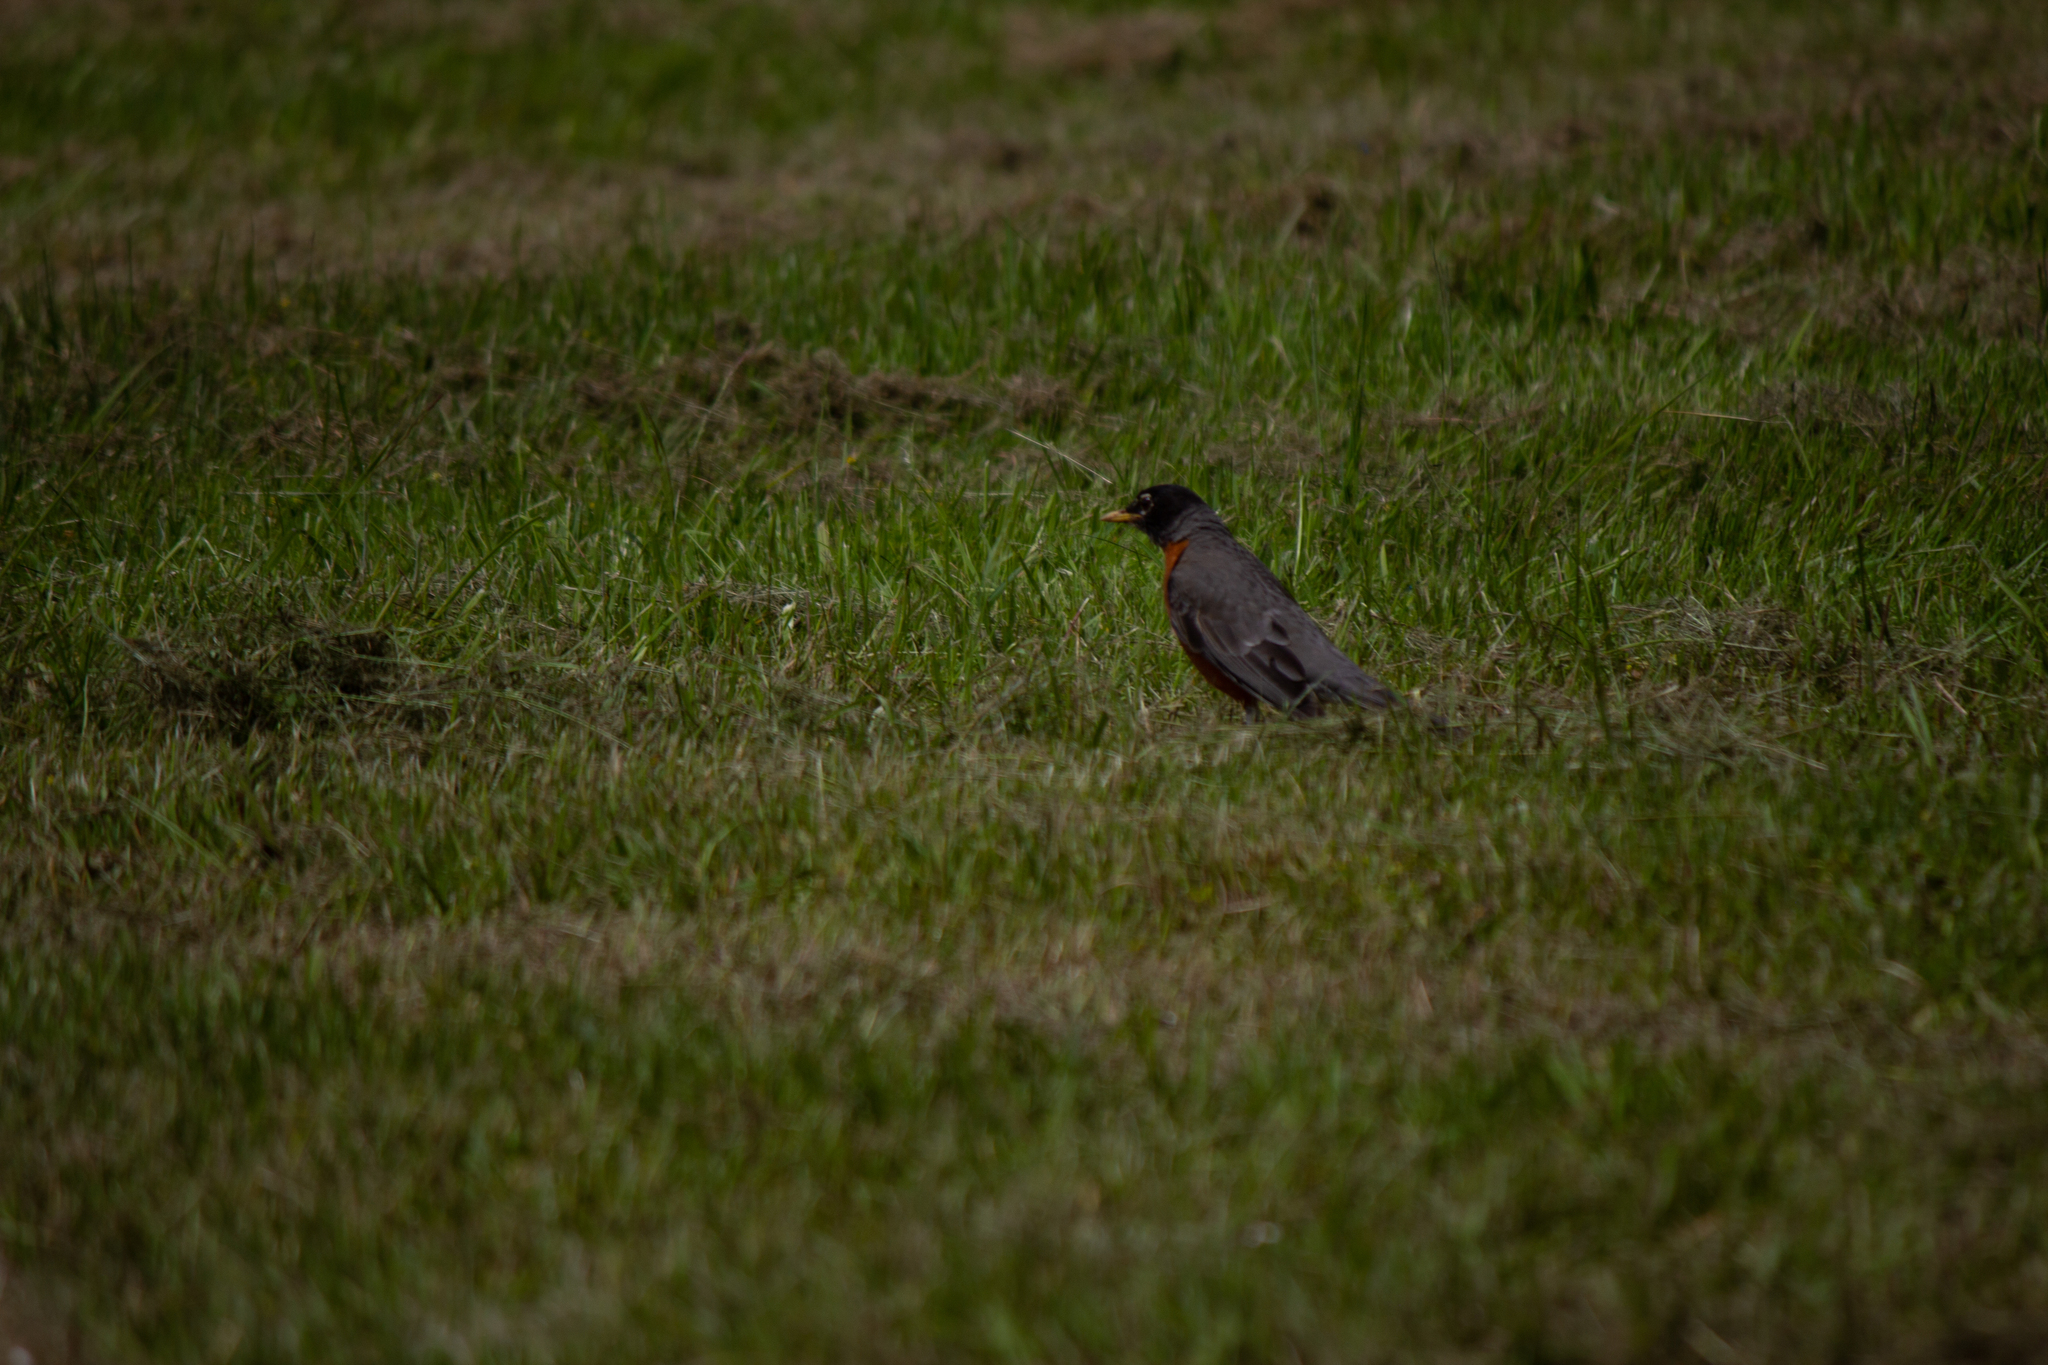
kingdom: Animalia
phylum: Chordata
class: Aves
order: Passeriformes
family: Turdidae
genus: Turdus
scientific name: Turdus migratorius
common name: American robin
